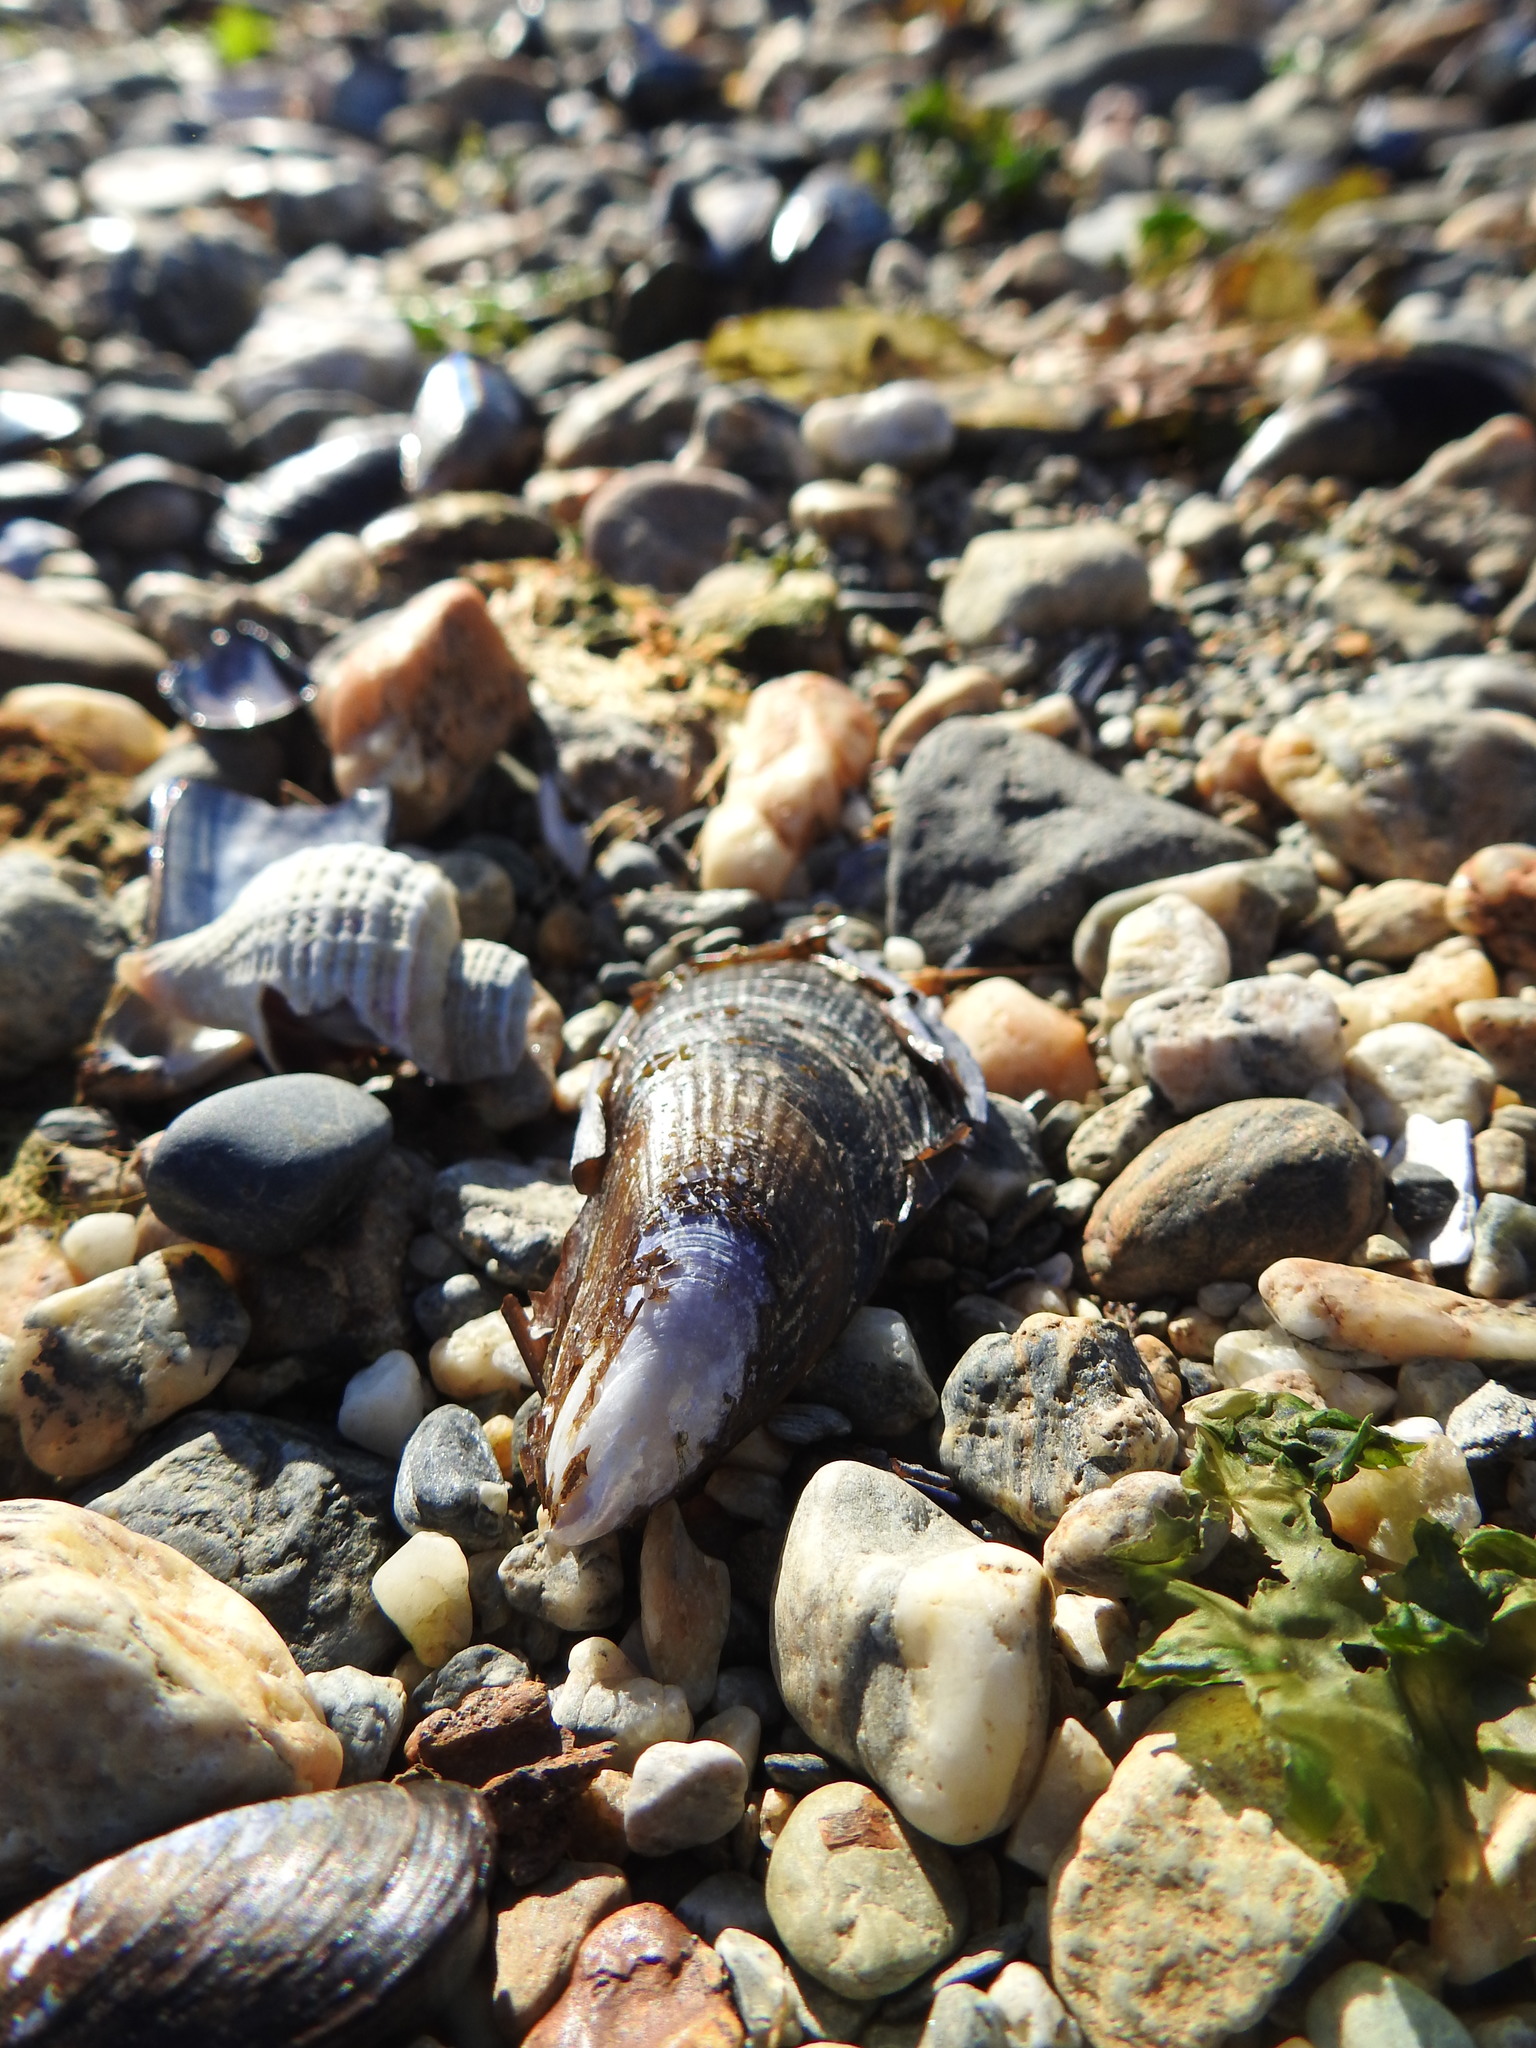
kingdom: Animalia
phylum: Mollusca
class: Bivalvia
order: Mytilida
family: Mytilidae
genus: Aulacomya
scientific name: Aulacomya atra
